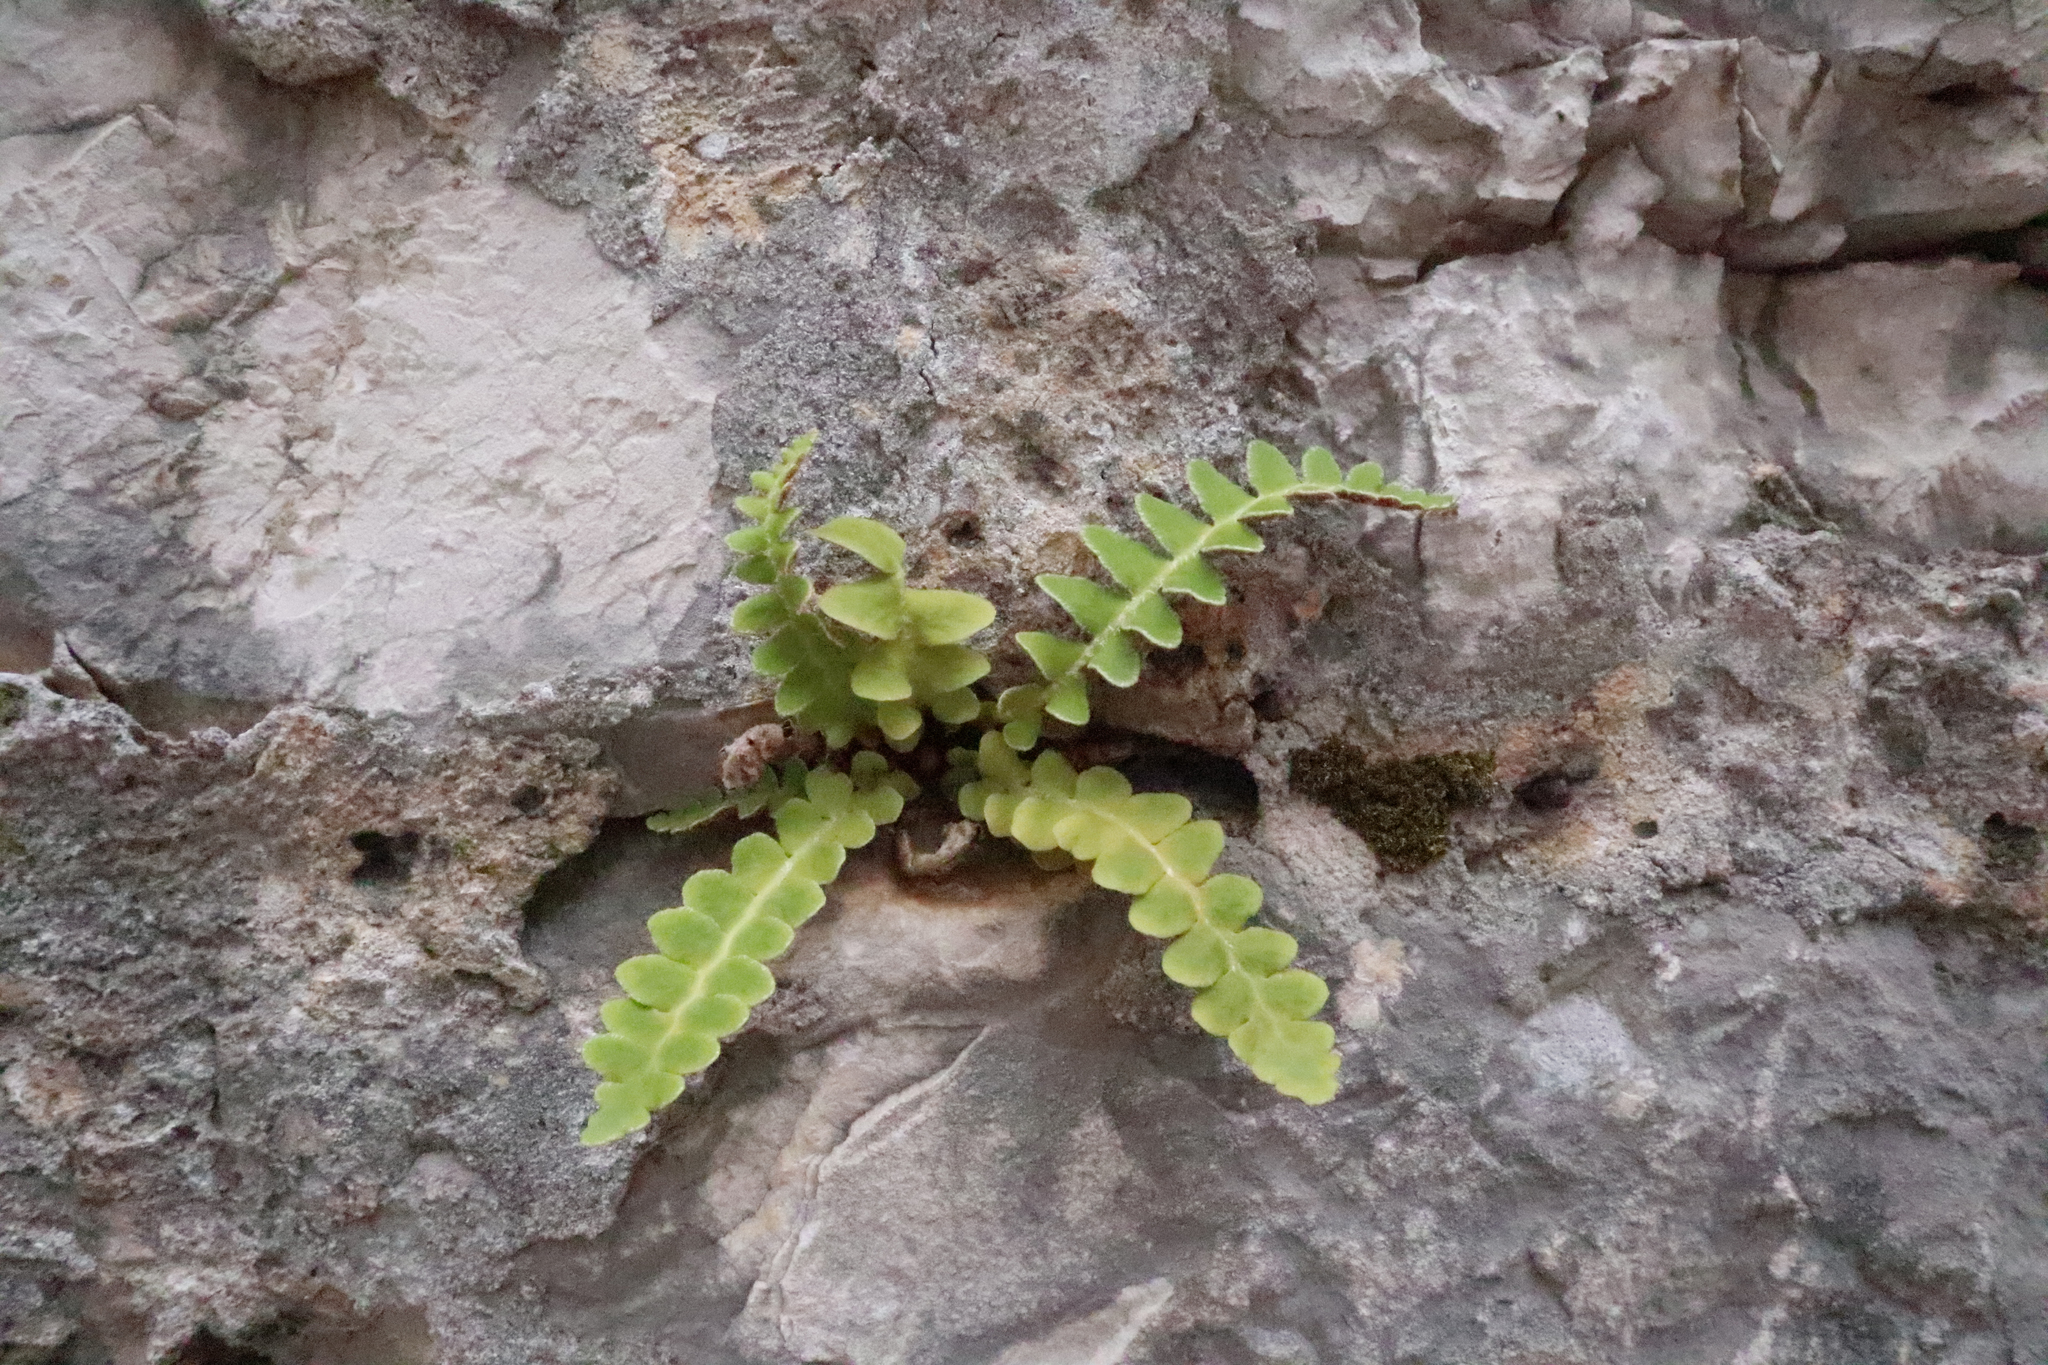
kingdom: Plantae
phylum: Tracheophyta
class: Polypodiopsida
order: Polypodiales
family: Aspleniaceae
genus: Asplenium
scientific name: Asplenium ceterach
